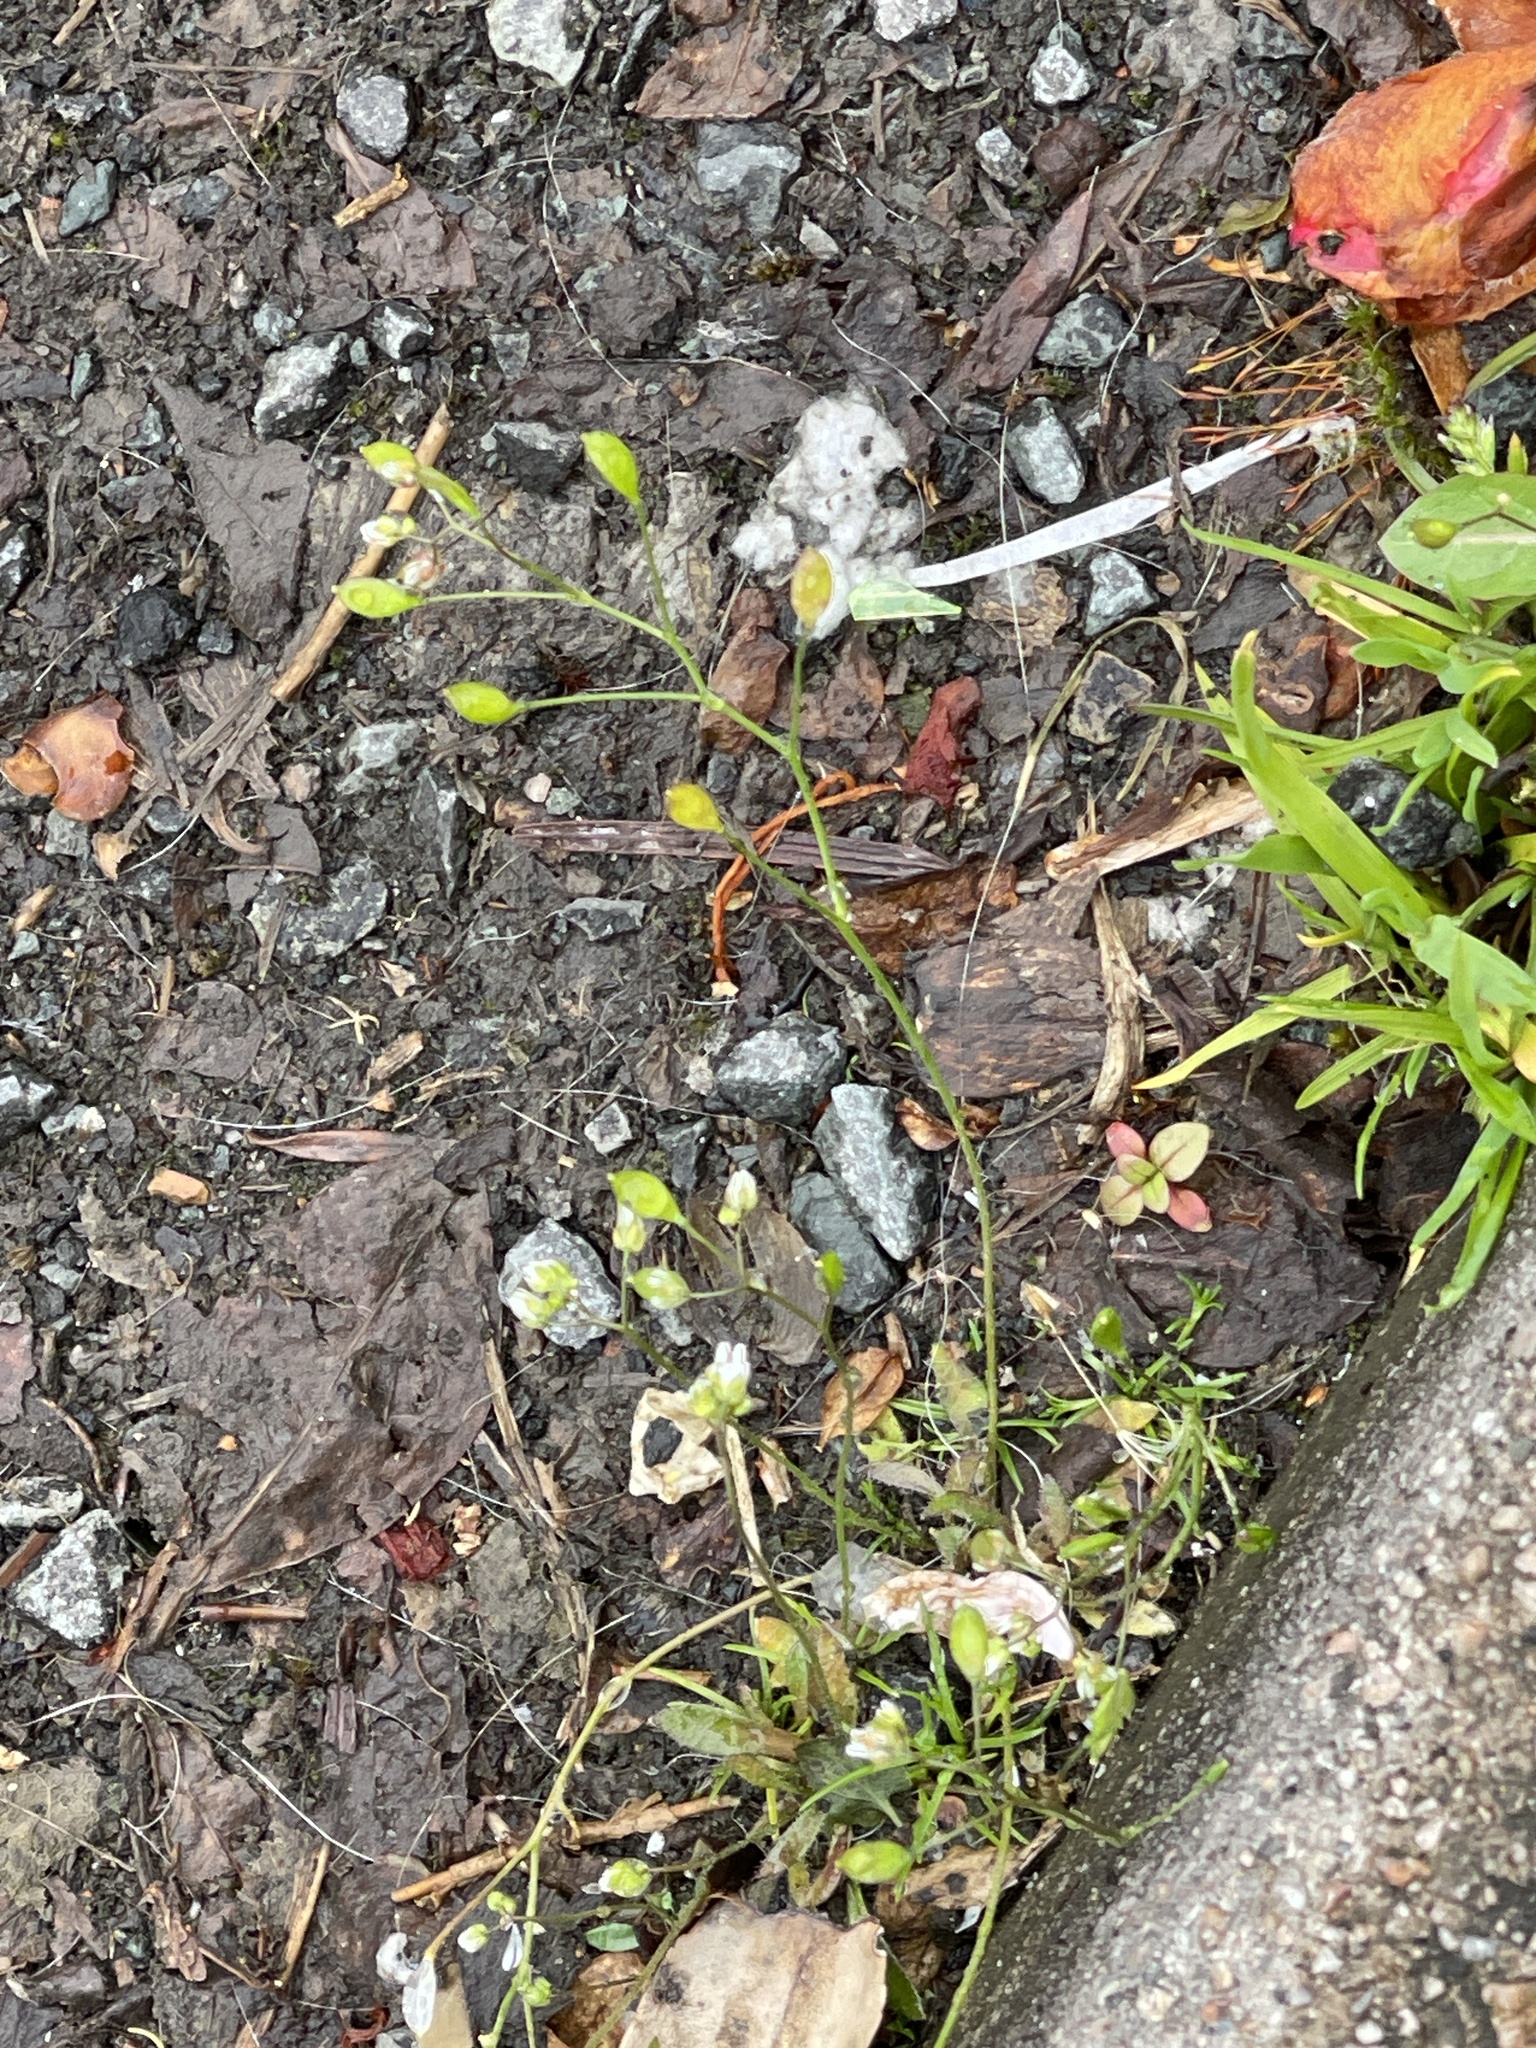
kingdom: Plantae
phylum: Tracheophyta
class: Magnoliopsida
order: Brassicales
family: Brassicaceae
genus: Draba
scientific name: Draba verna
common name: Spring draba
